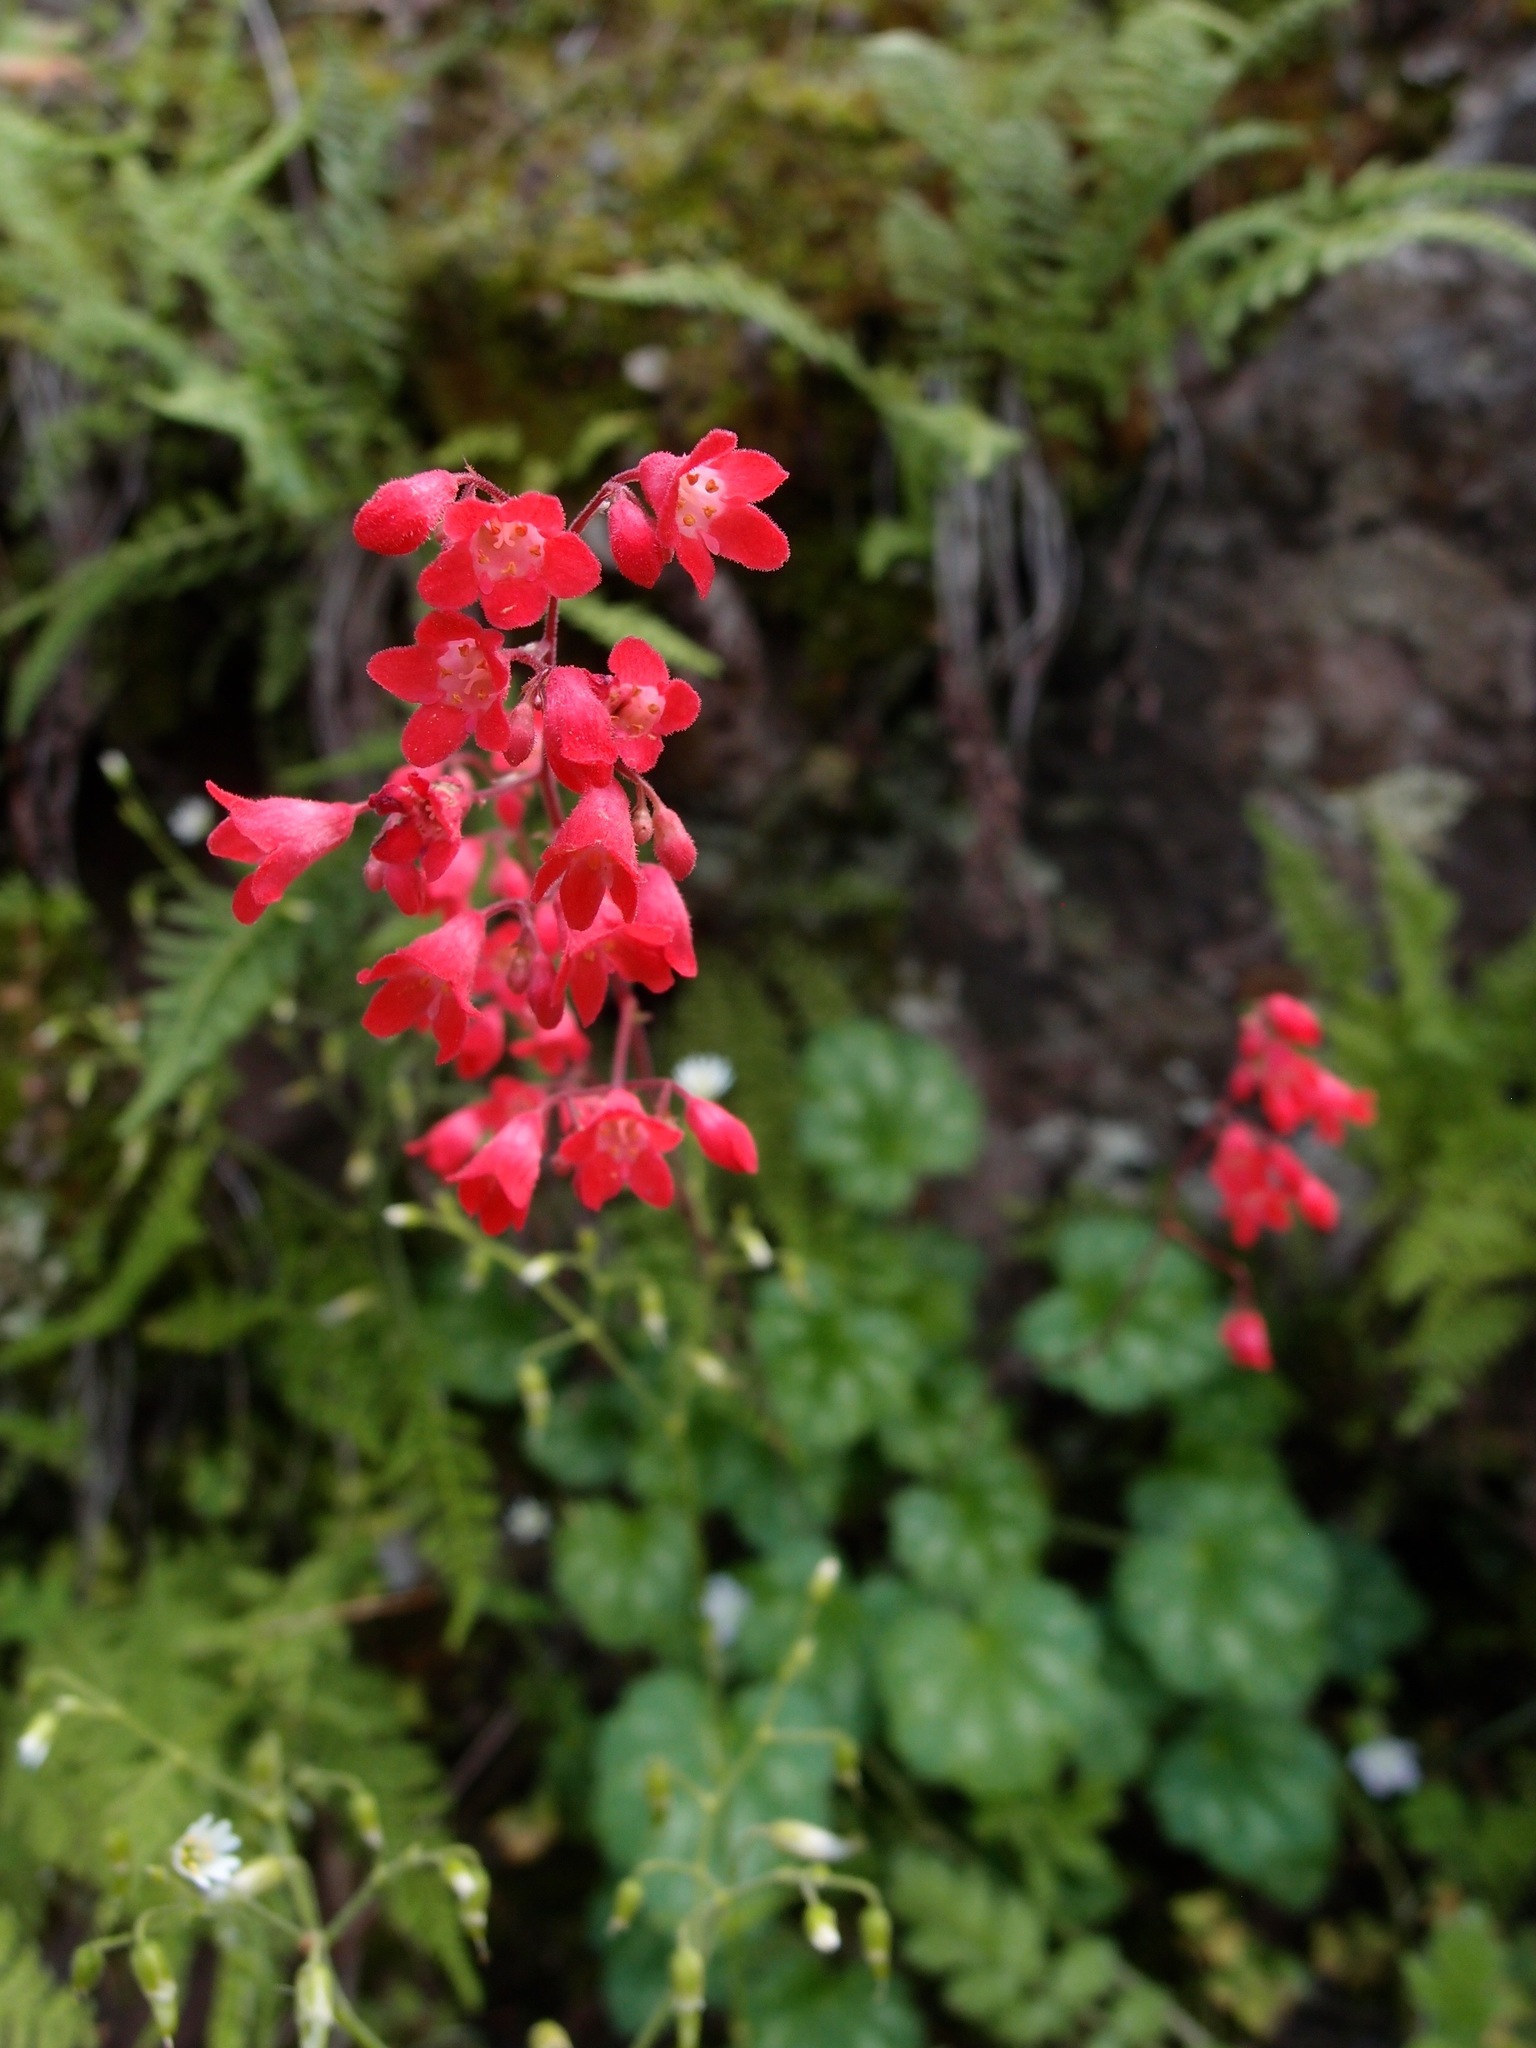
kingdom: Plantae
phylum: Tracheophyta
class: Magnoliopsida
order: Saxifragales
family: Saxifragaceae
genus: Heuchera
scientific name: Heuchera sanguinea
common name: Coralbells
